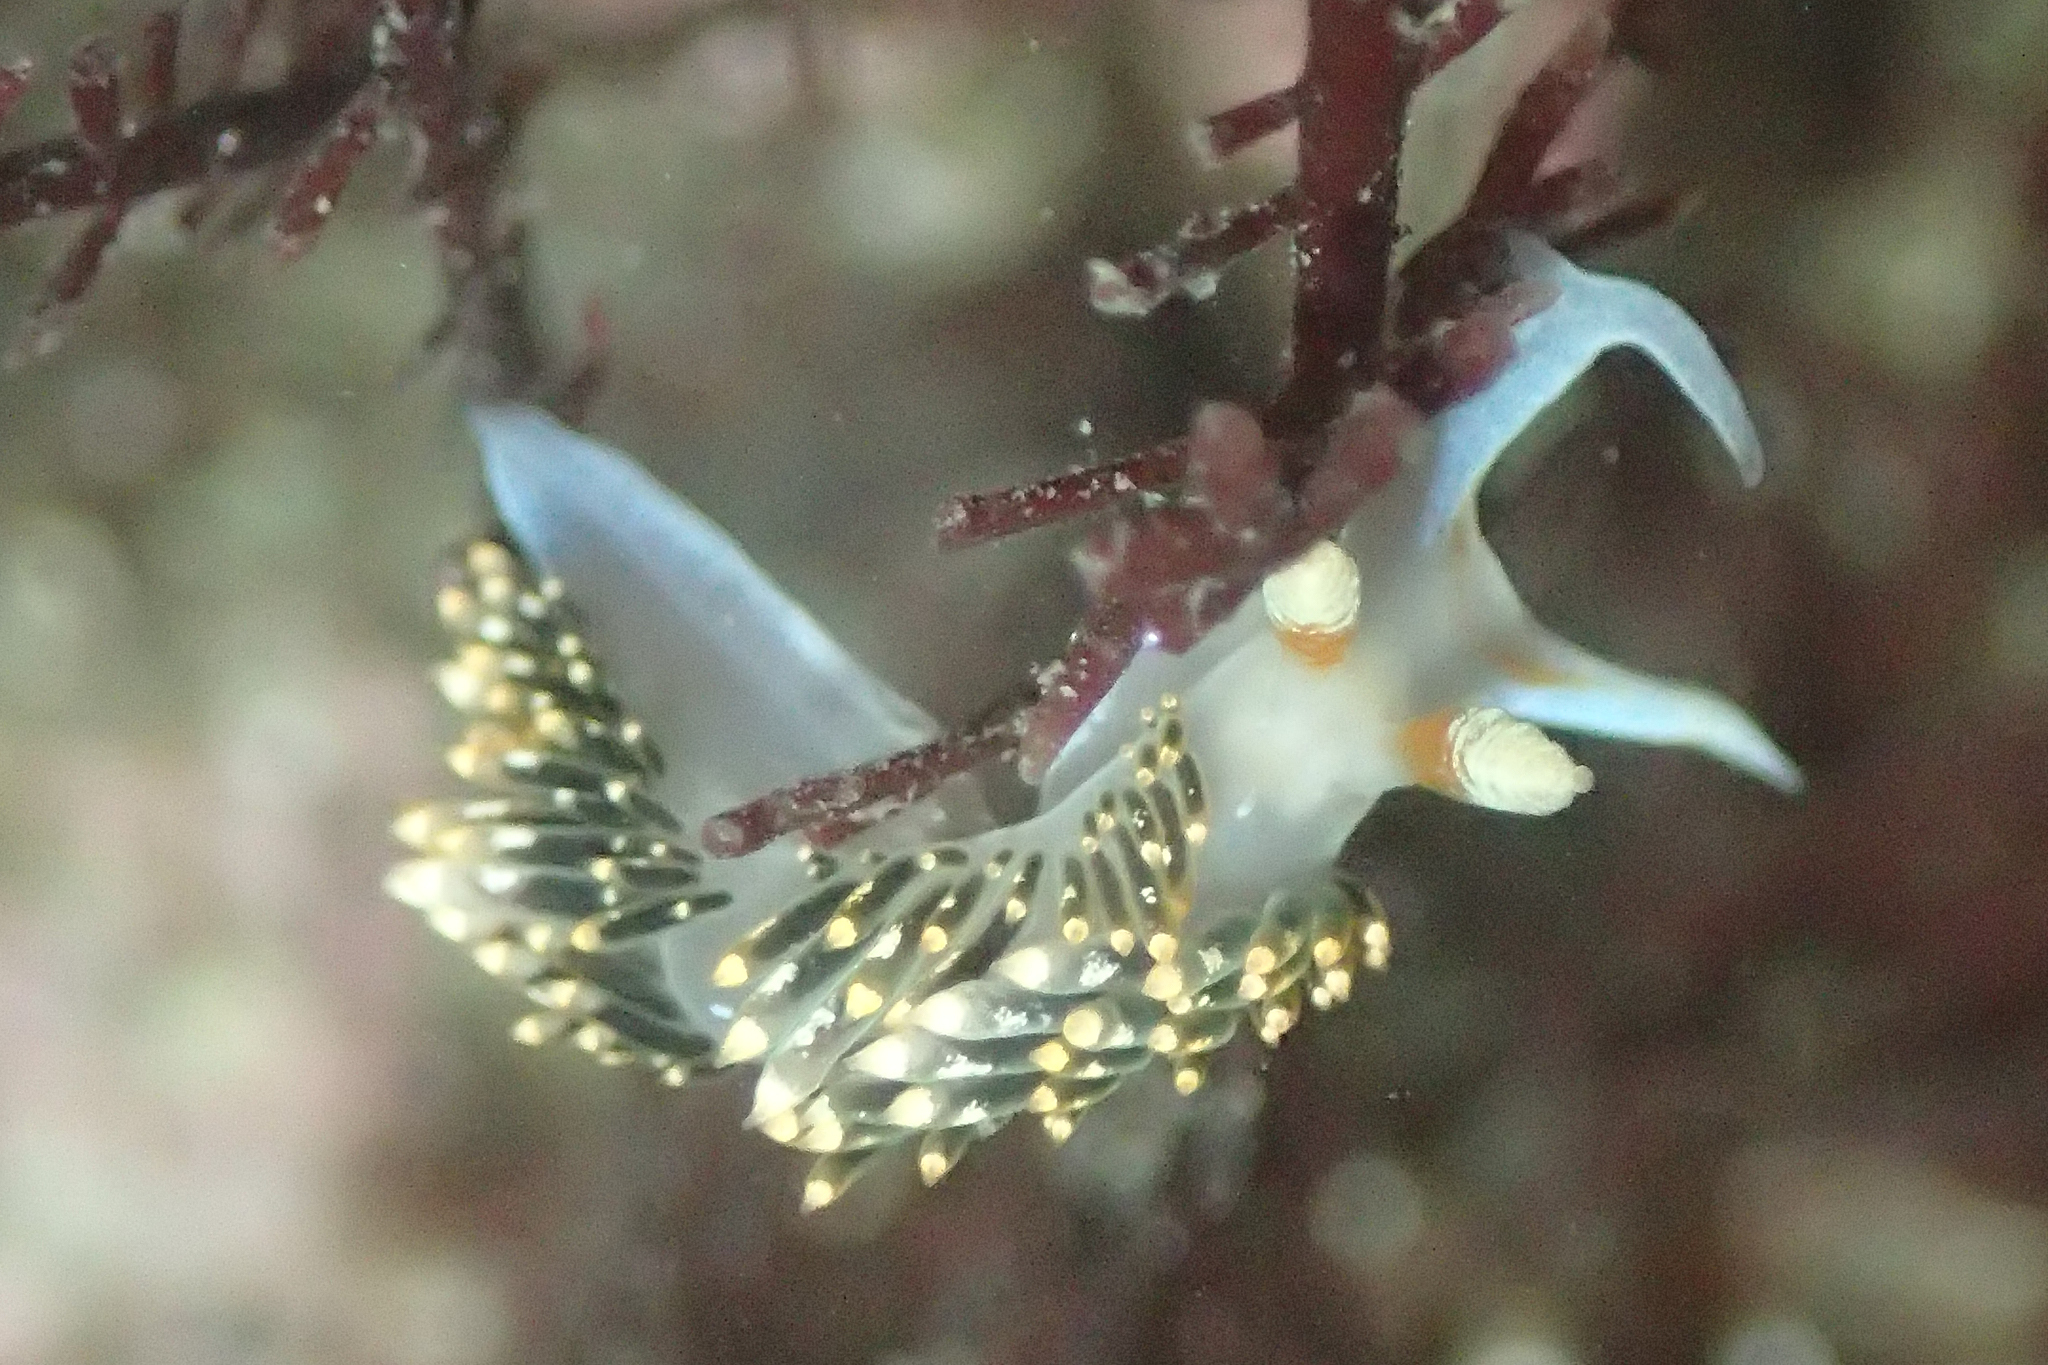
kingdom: Animalia
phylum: Mollusca
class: Gastropoda
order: Nudibranchia
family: Facelinidae
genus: Phidiana
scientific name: Phidiana hiltoni
